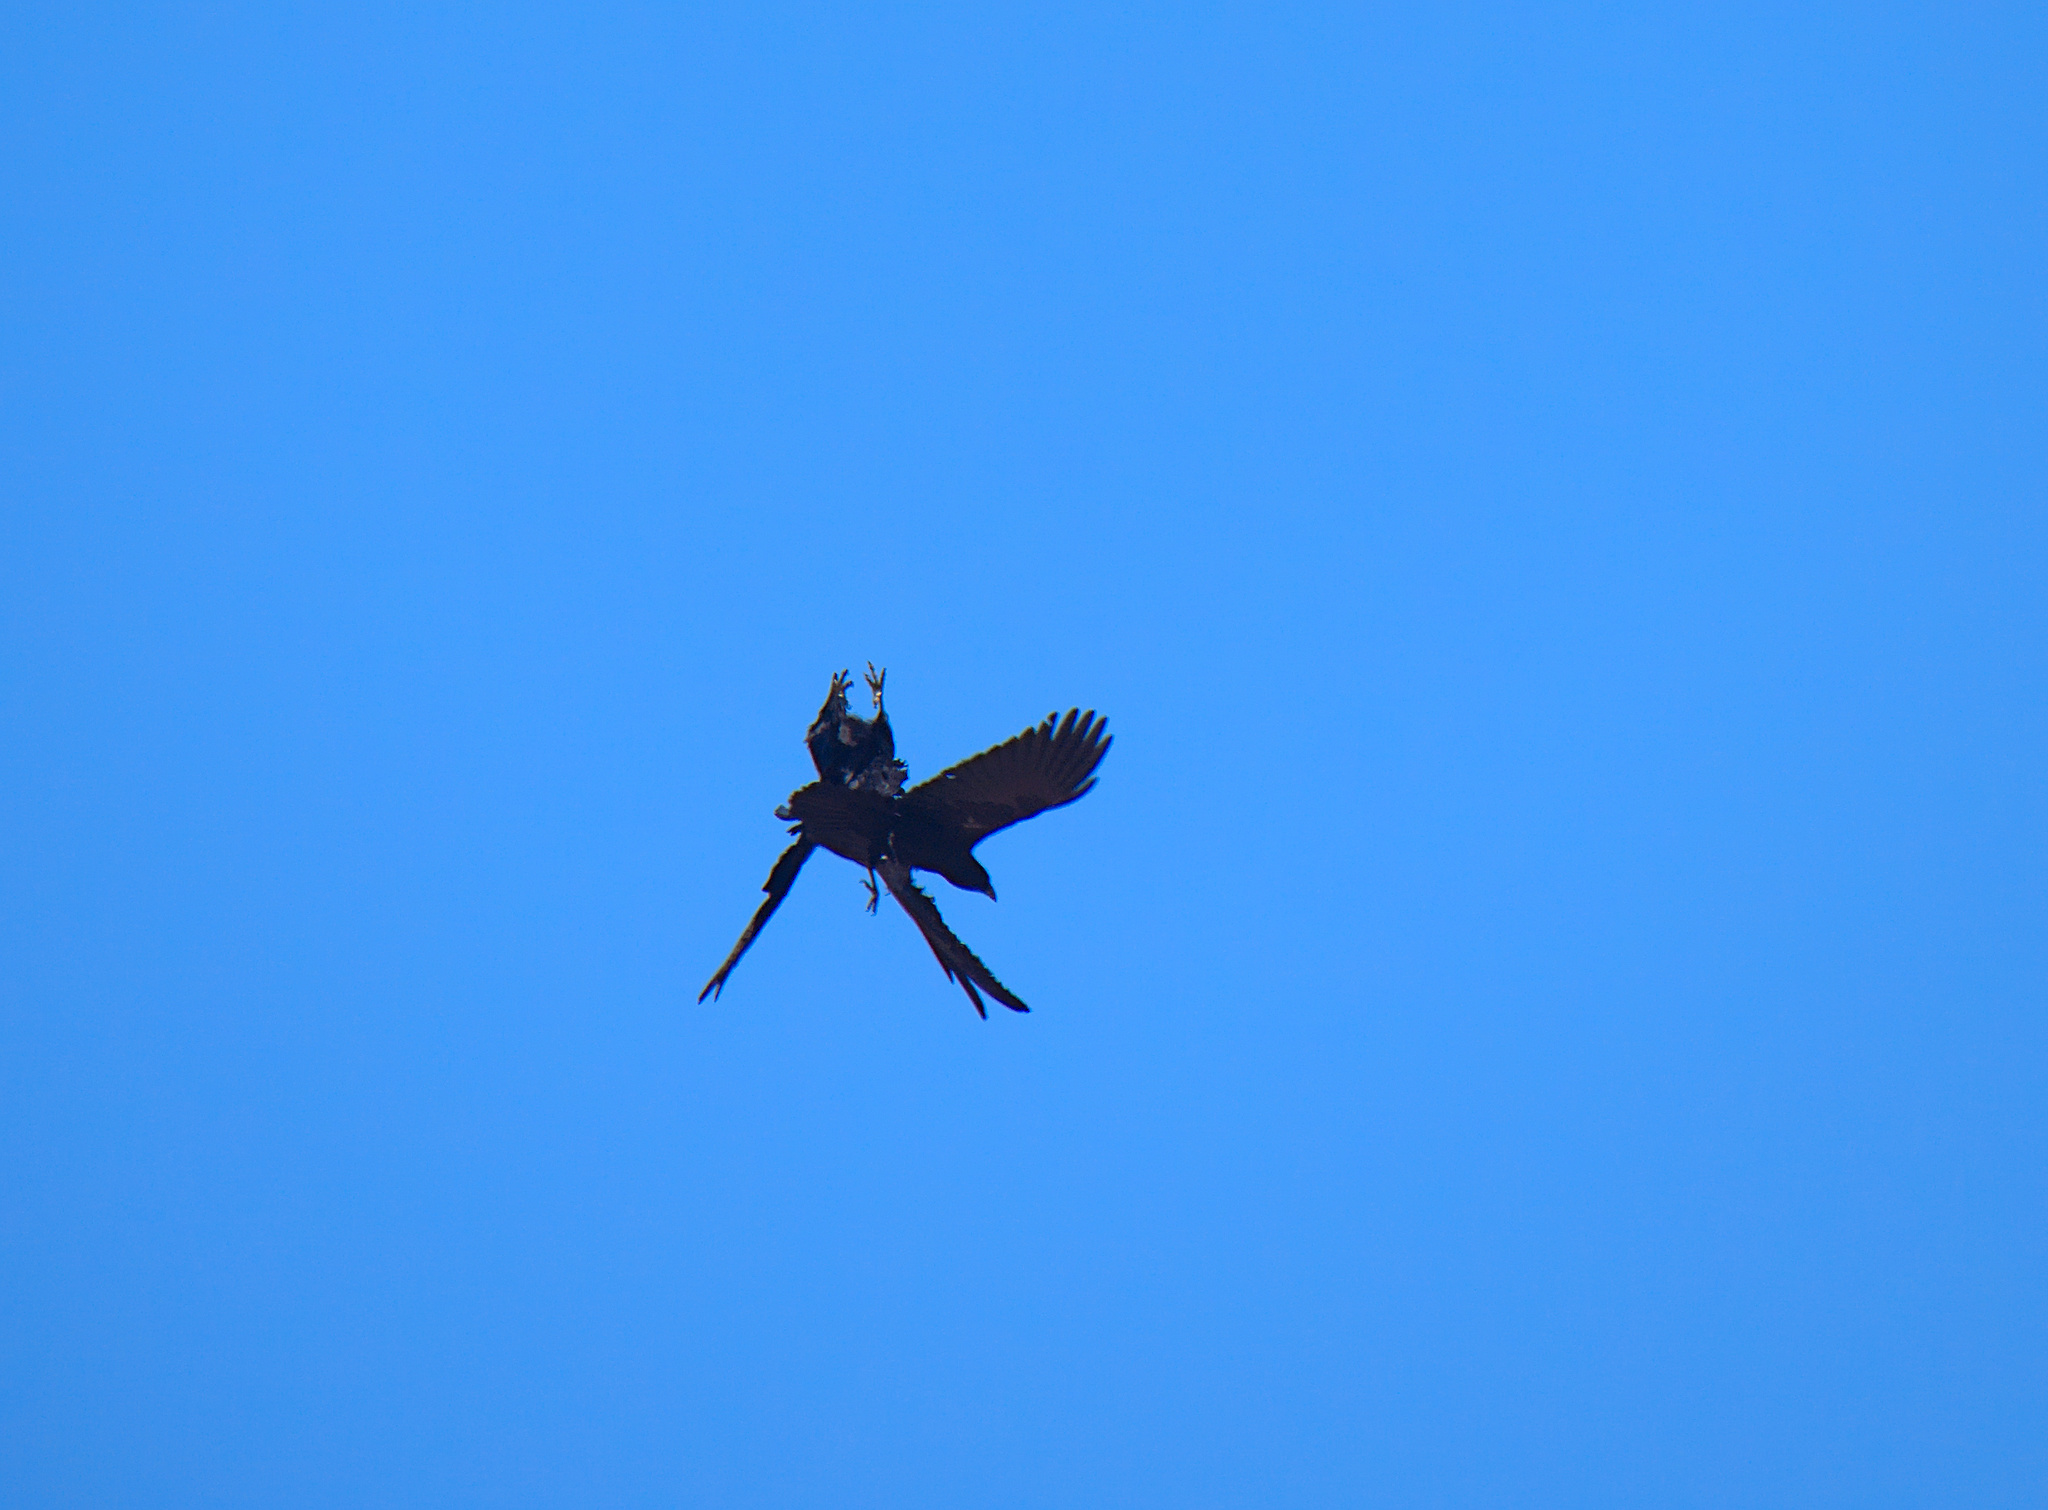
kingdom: Animalia
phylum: Chordata
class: Aves
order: Passeriformes
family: Corvidae
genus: Corvus
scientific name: Corvus corax
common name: Common raven
